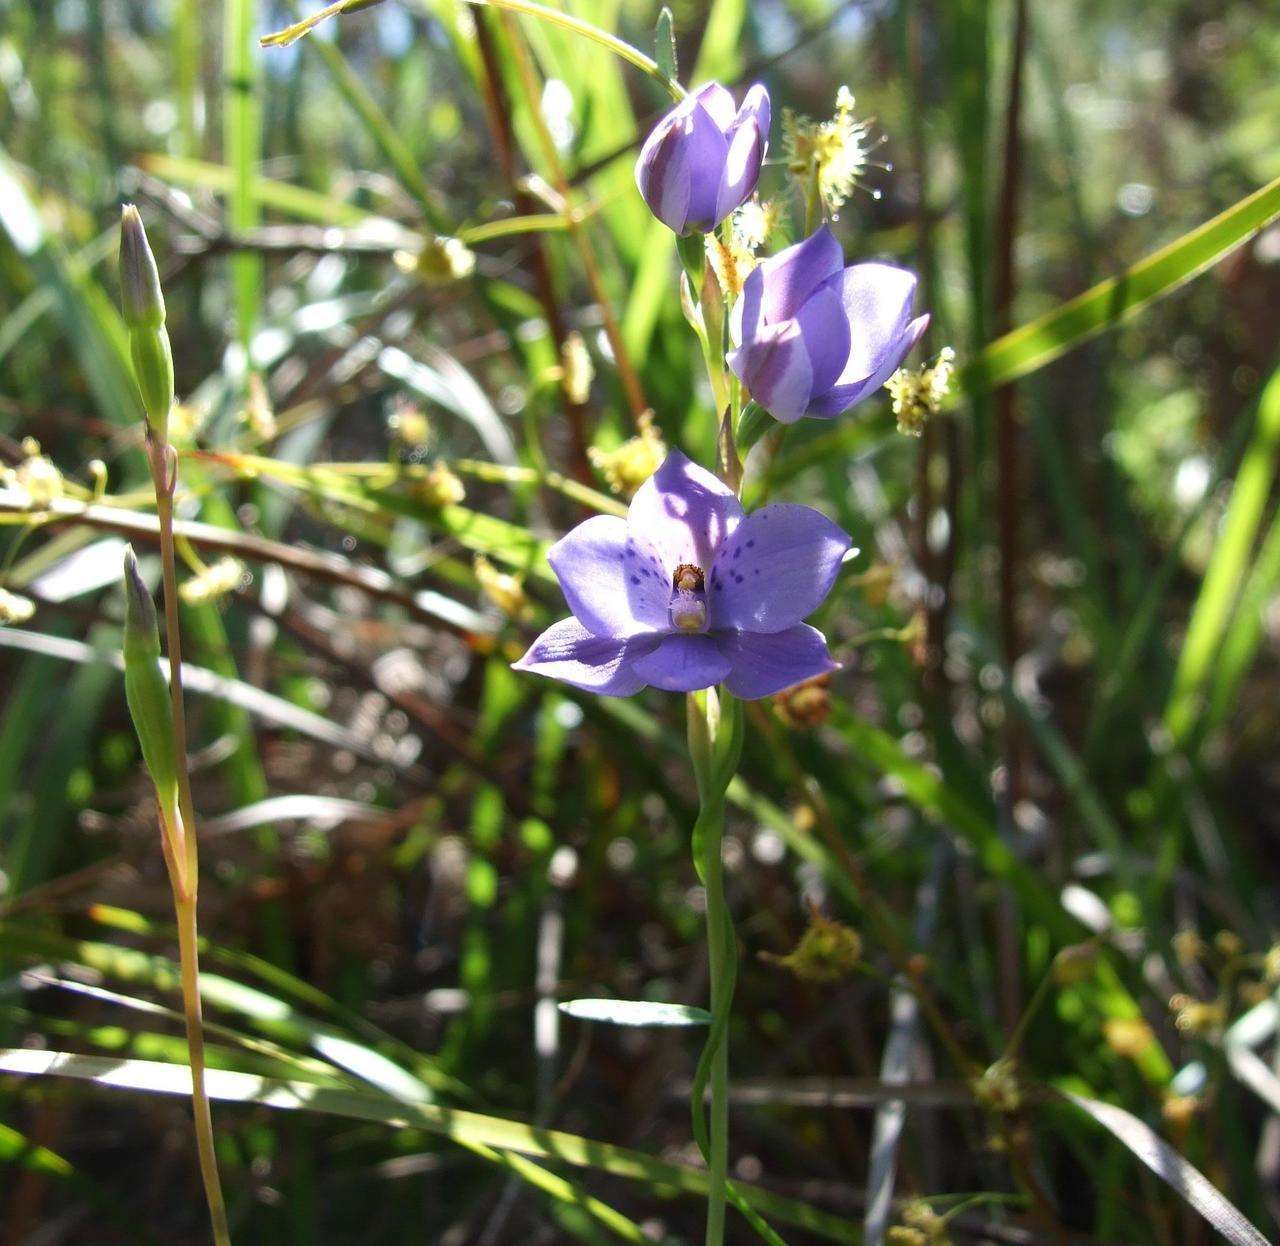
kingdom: Plantae
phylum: Tracheophyta
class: Liliopsida
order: Asparagales
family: Orchidaceae
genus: Thelymitra
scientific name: Thelymitra ixioides
